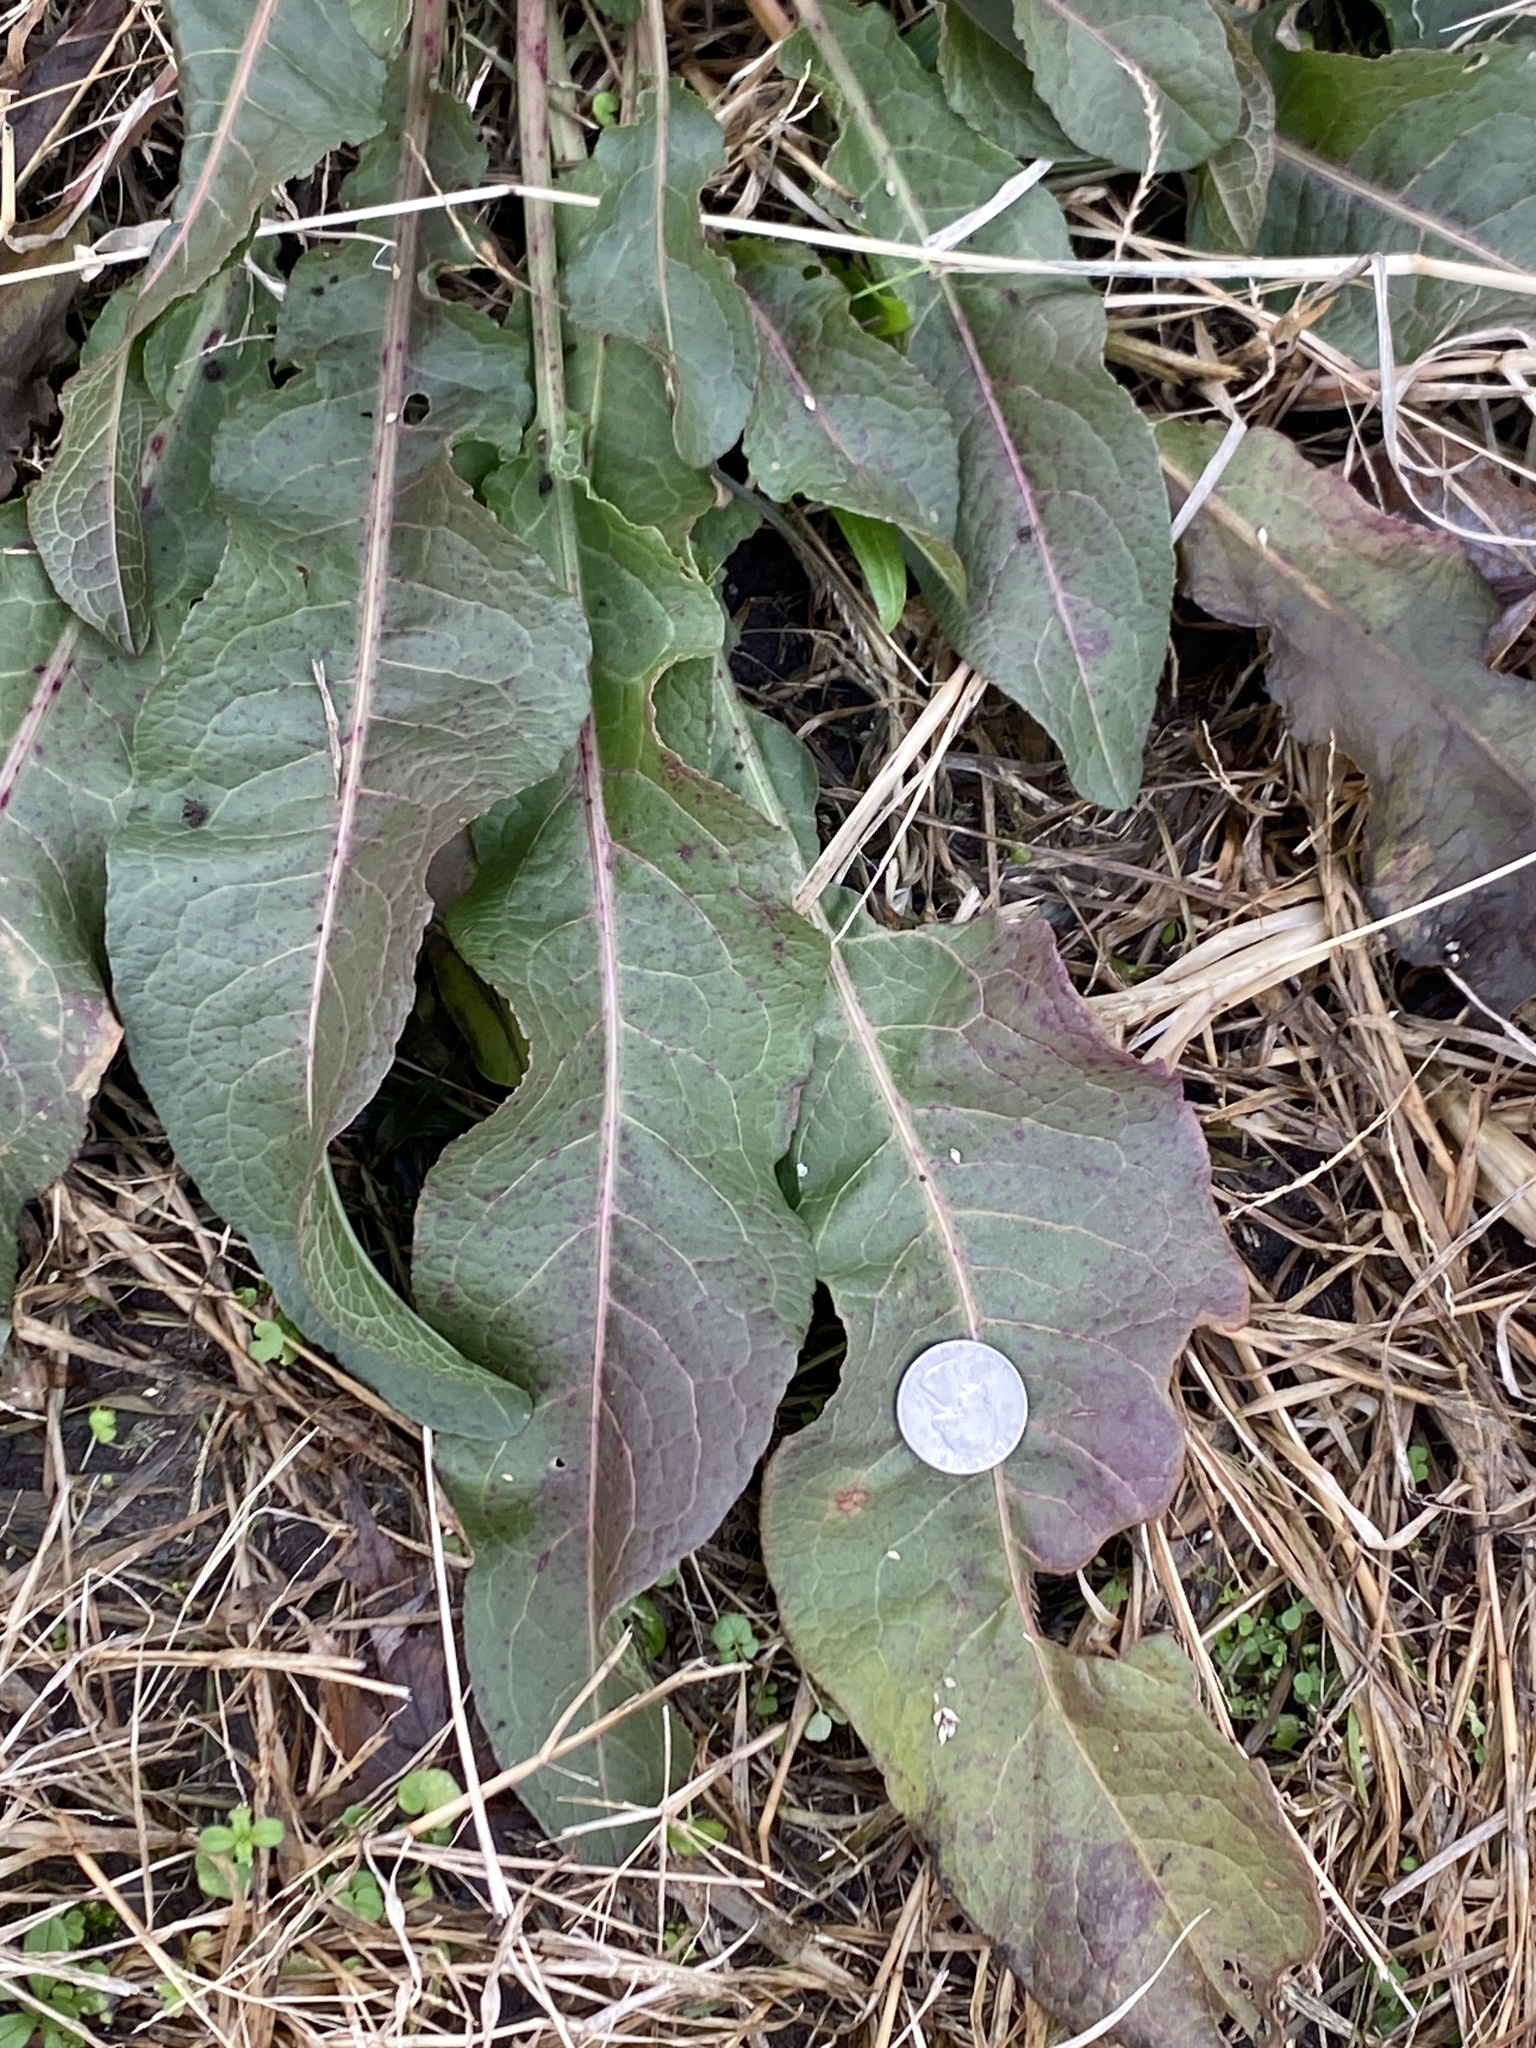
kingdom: Plantae
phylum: Tracheophyta
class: Magnoliopsida
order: Caryophyllales
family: Polygonaceae
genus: Rumex
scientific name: Rumex crispus
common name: Curled dock
